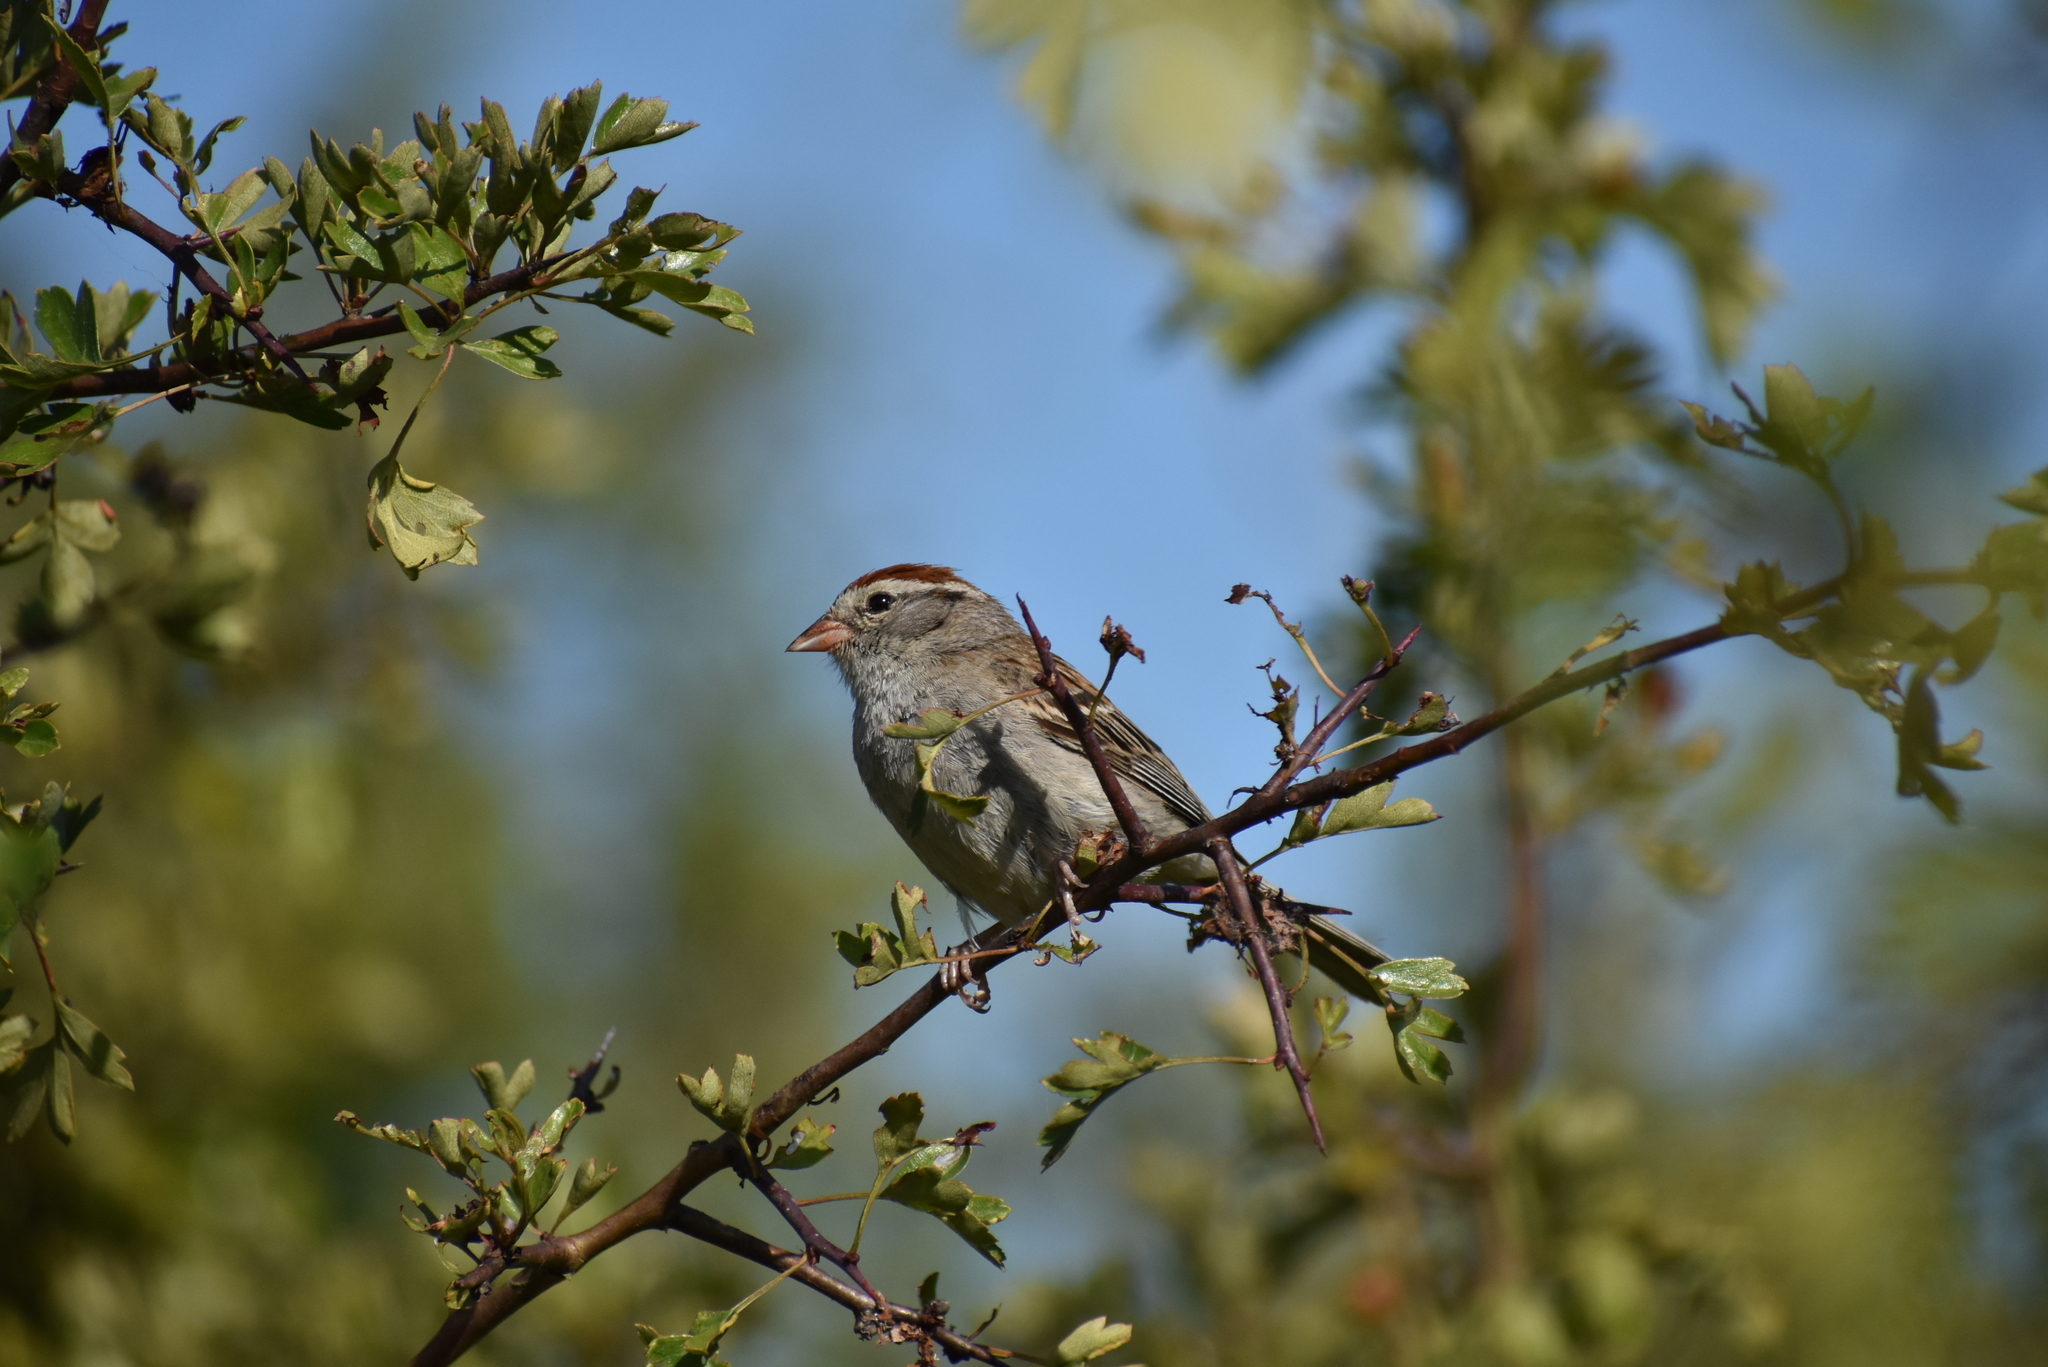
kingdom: Animalia
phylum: Chordata
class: Aves
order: Passeriformes
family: Passerellidae
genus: Spizella
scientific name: Spizella passerina
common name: Chipping sparrow
